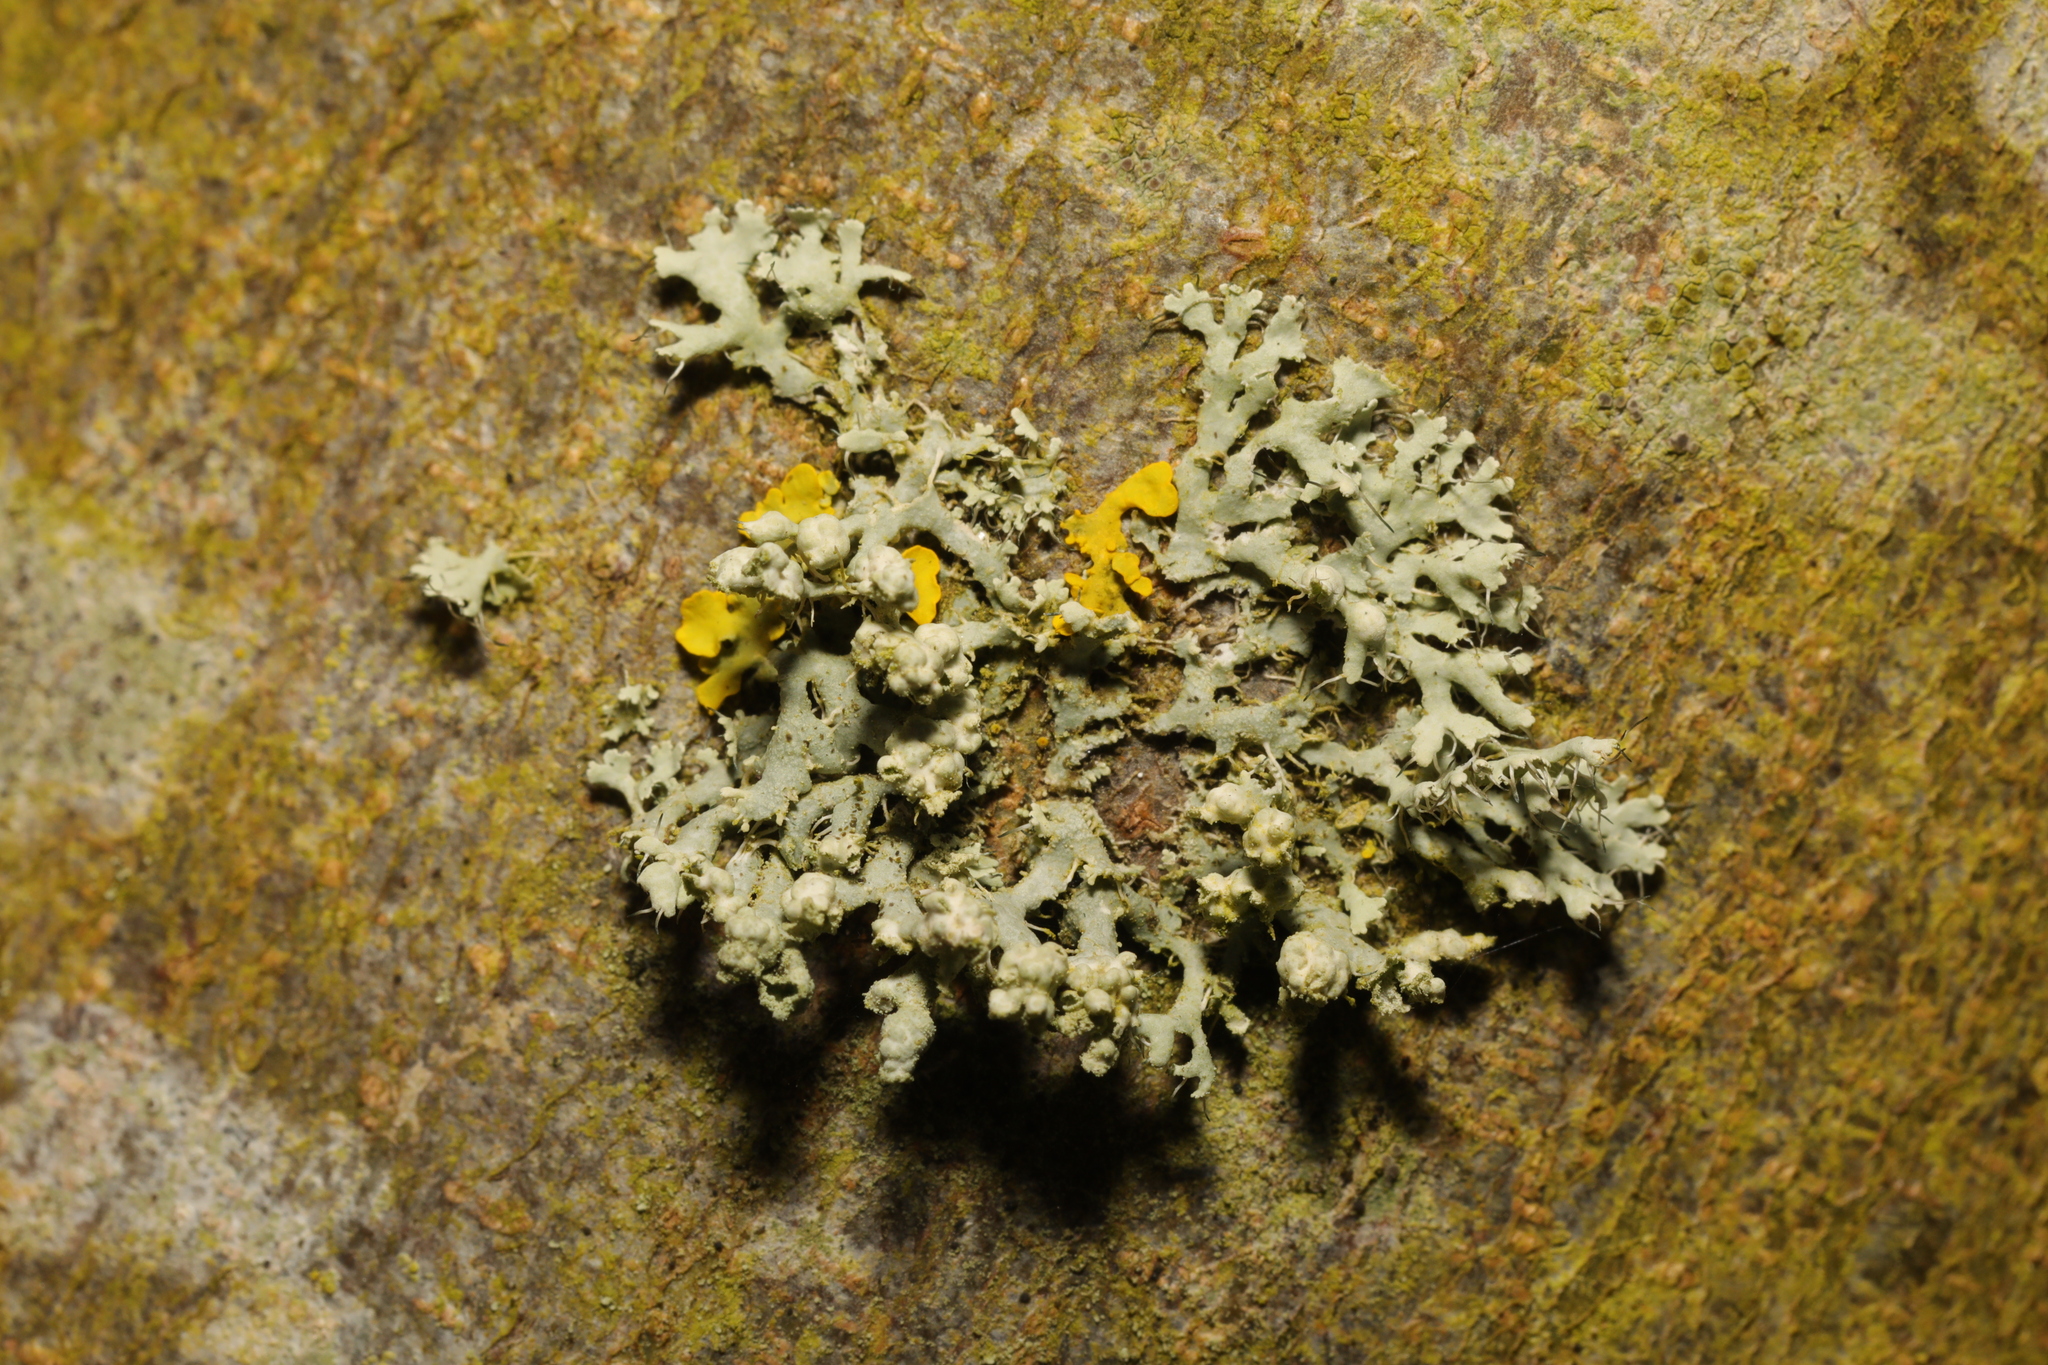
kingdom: Fungi
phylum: Ascomycota
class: Lecanoromycetes
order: Caliciales
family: Physciaceae
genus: Physcia
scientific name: Physcia adscendens
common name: Hooded rosette lichen
